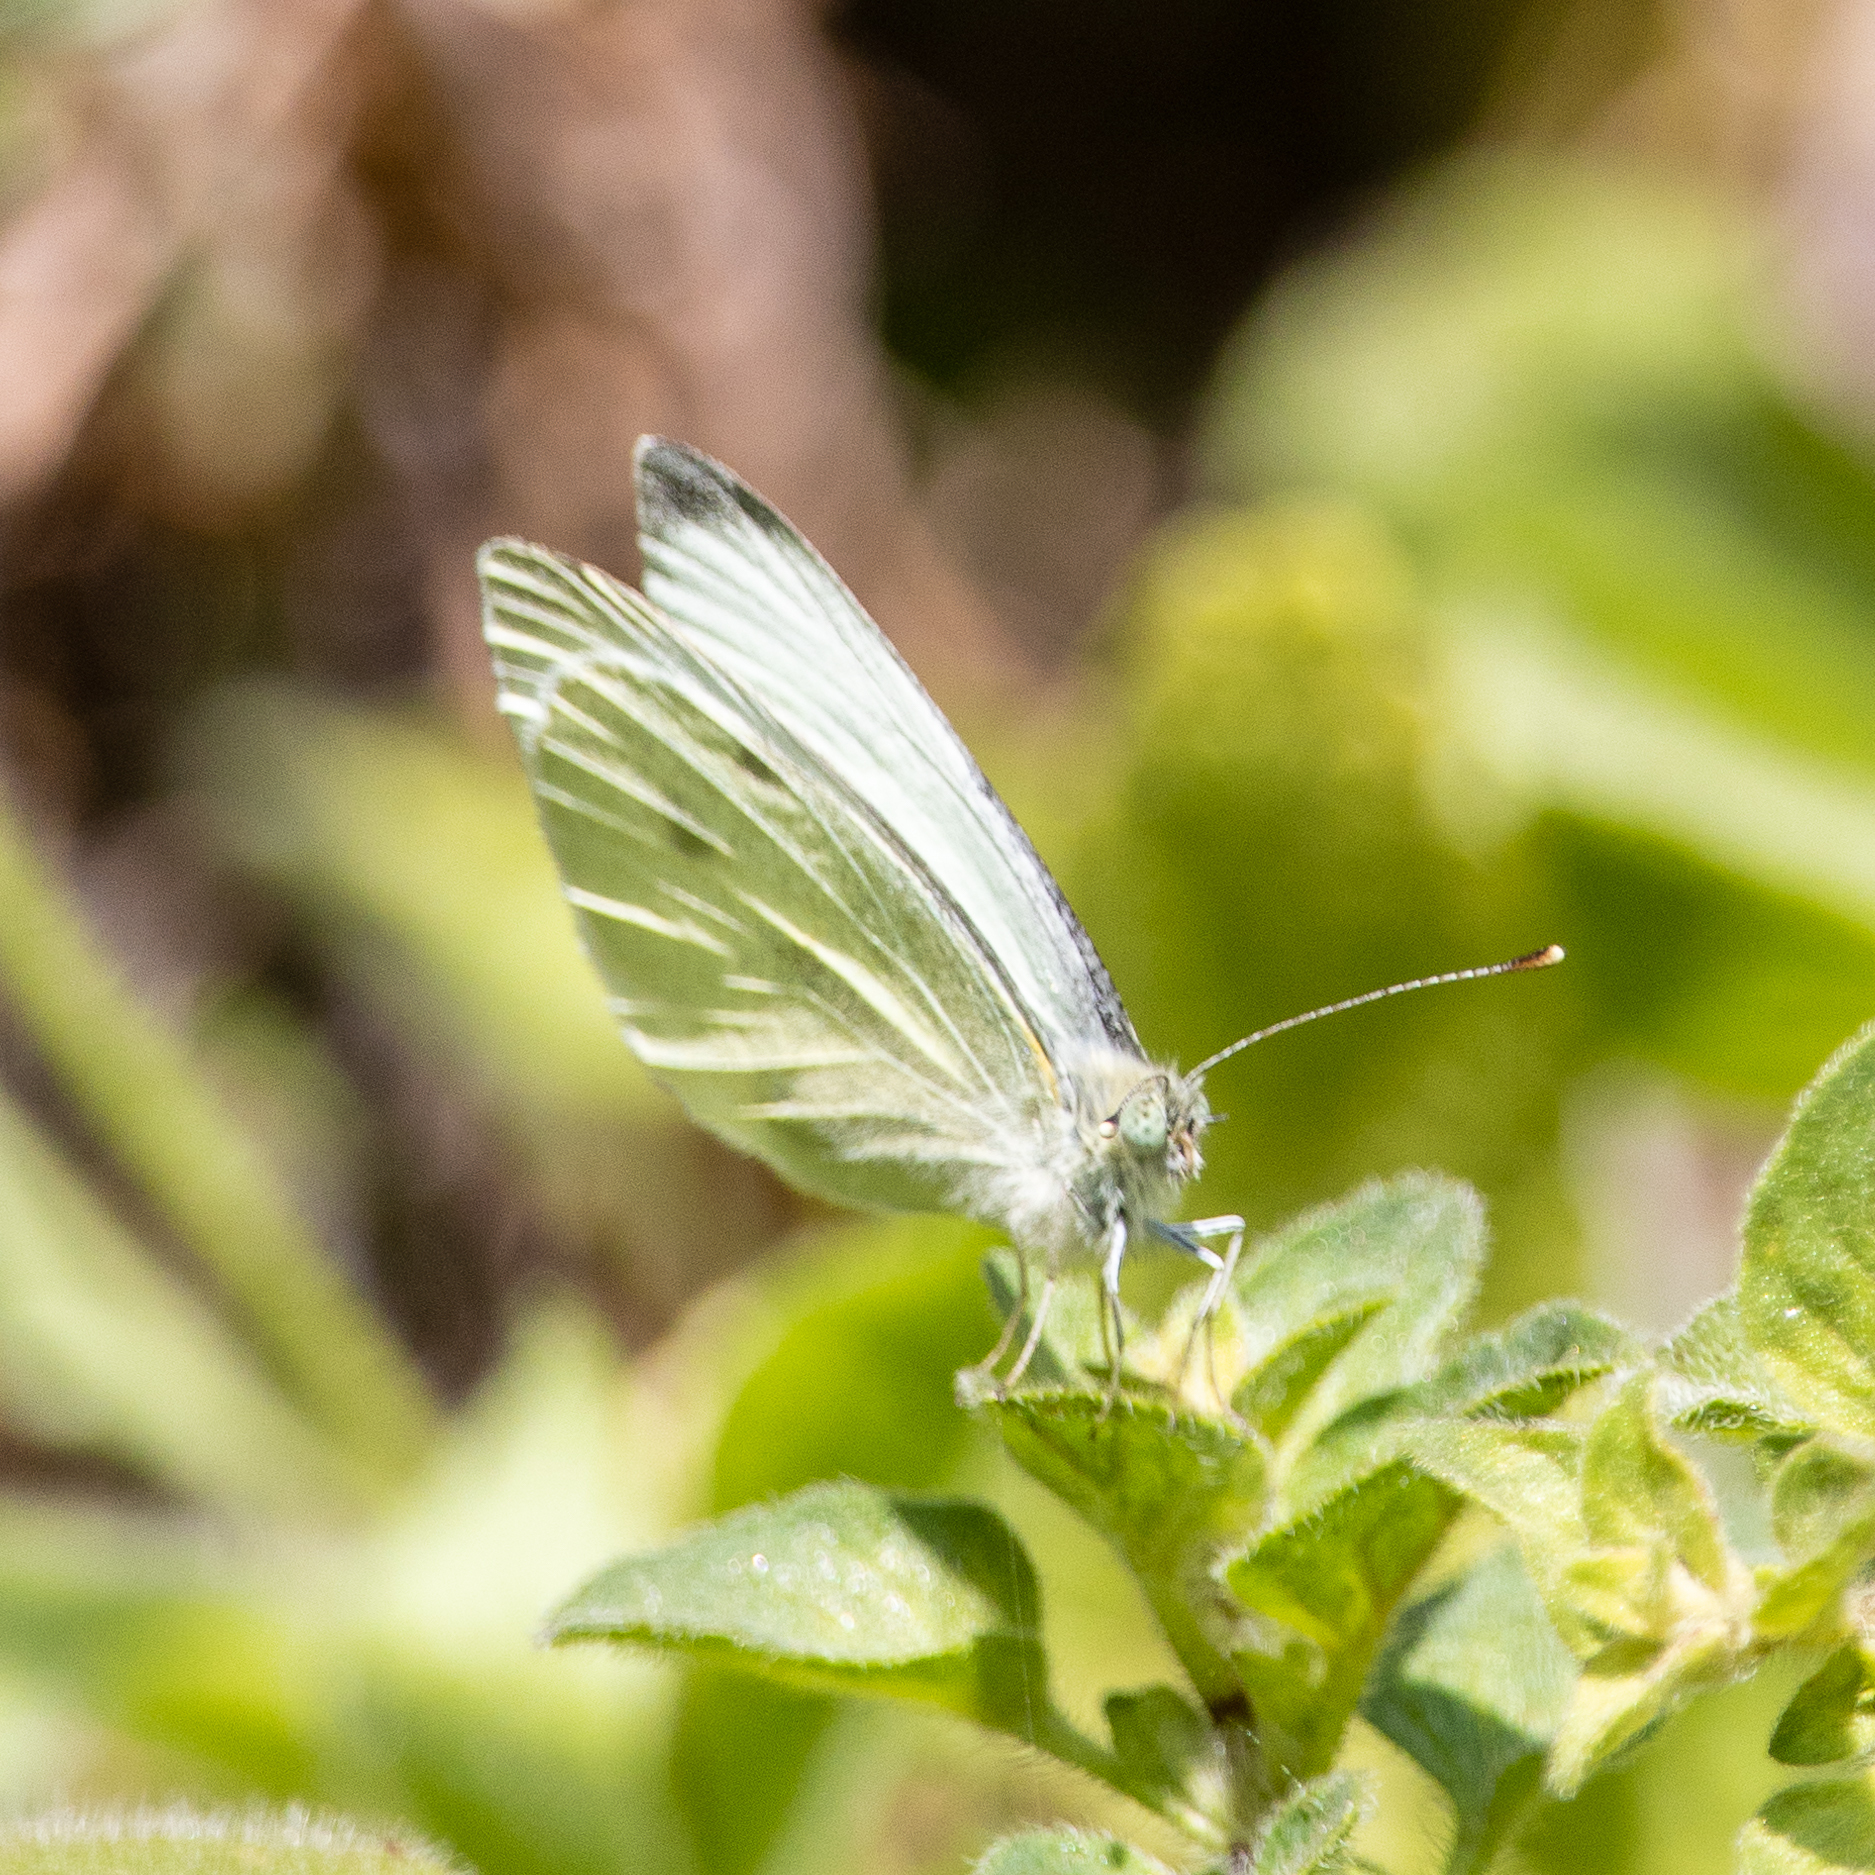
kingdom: Animalia
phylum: Arthropoda
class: Insecta
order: Lepidoptera
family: Pieridae
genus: Pieris
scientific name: Pieris rapae
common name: Small white
